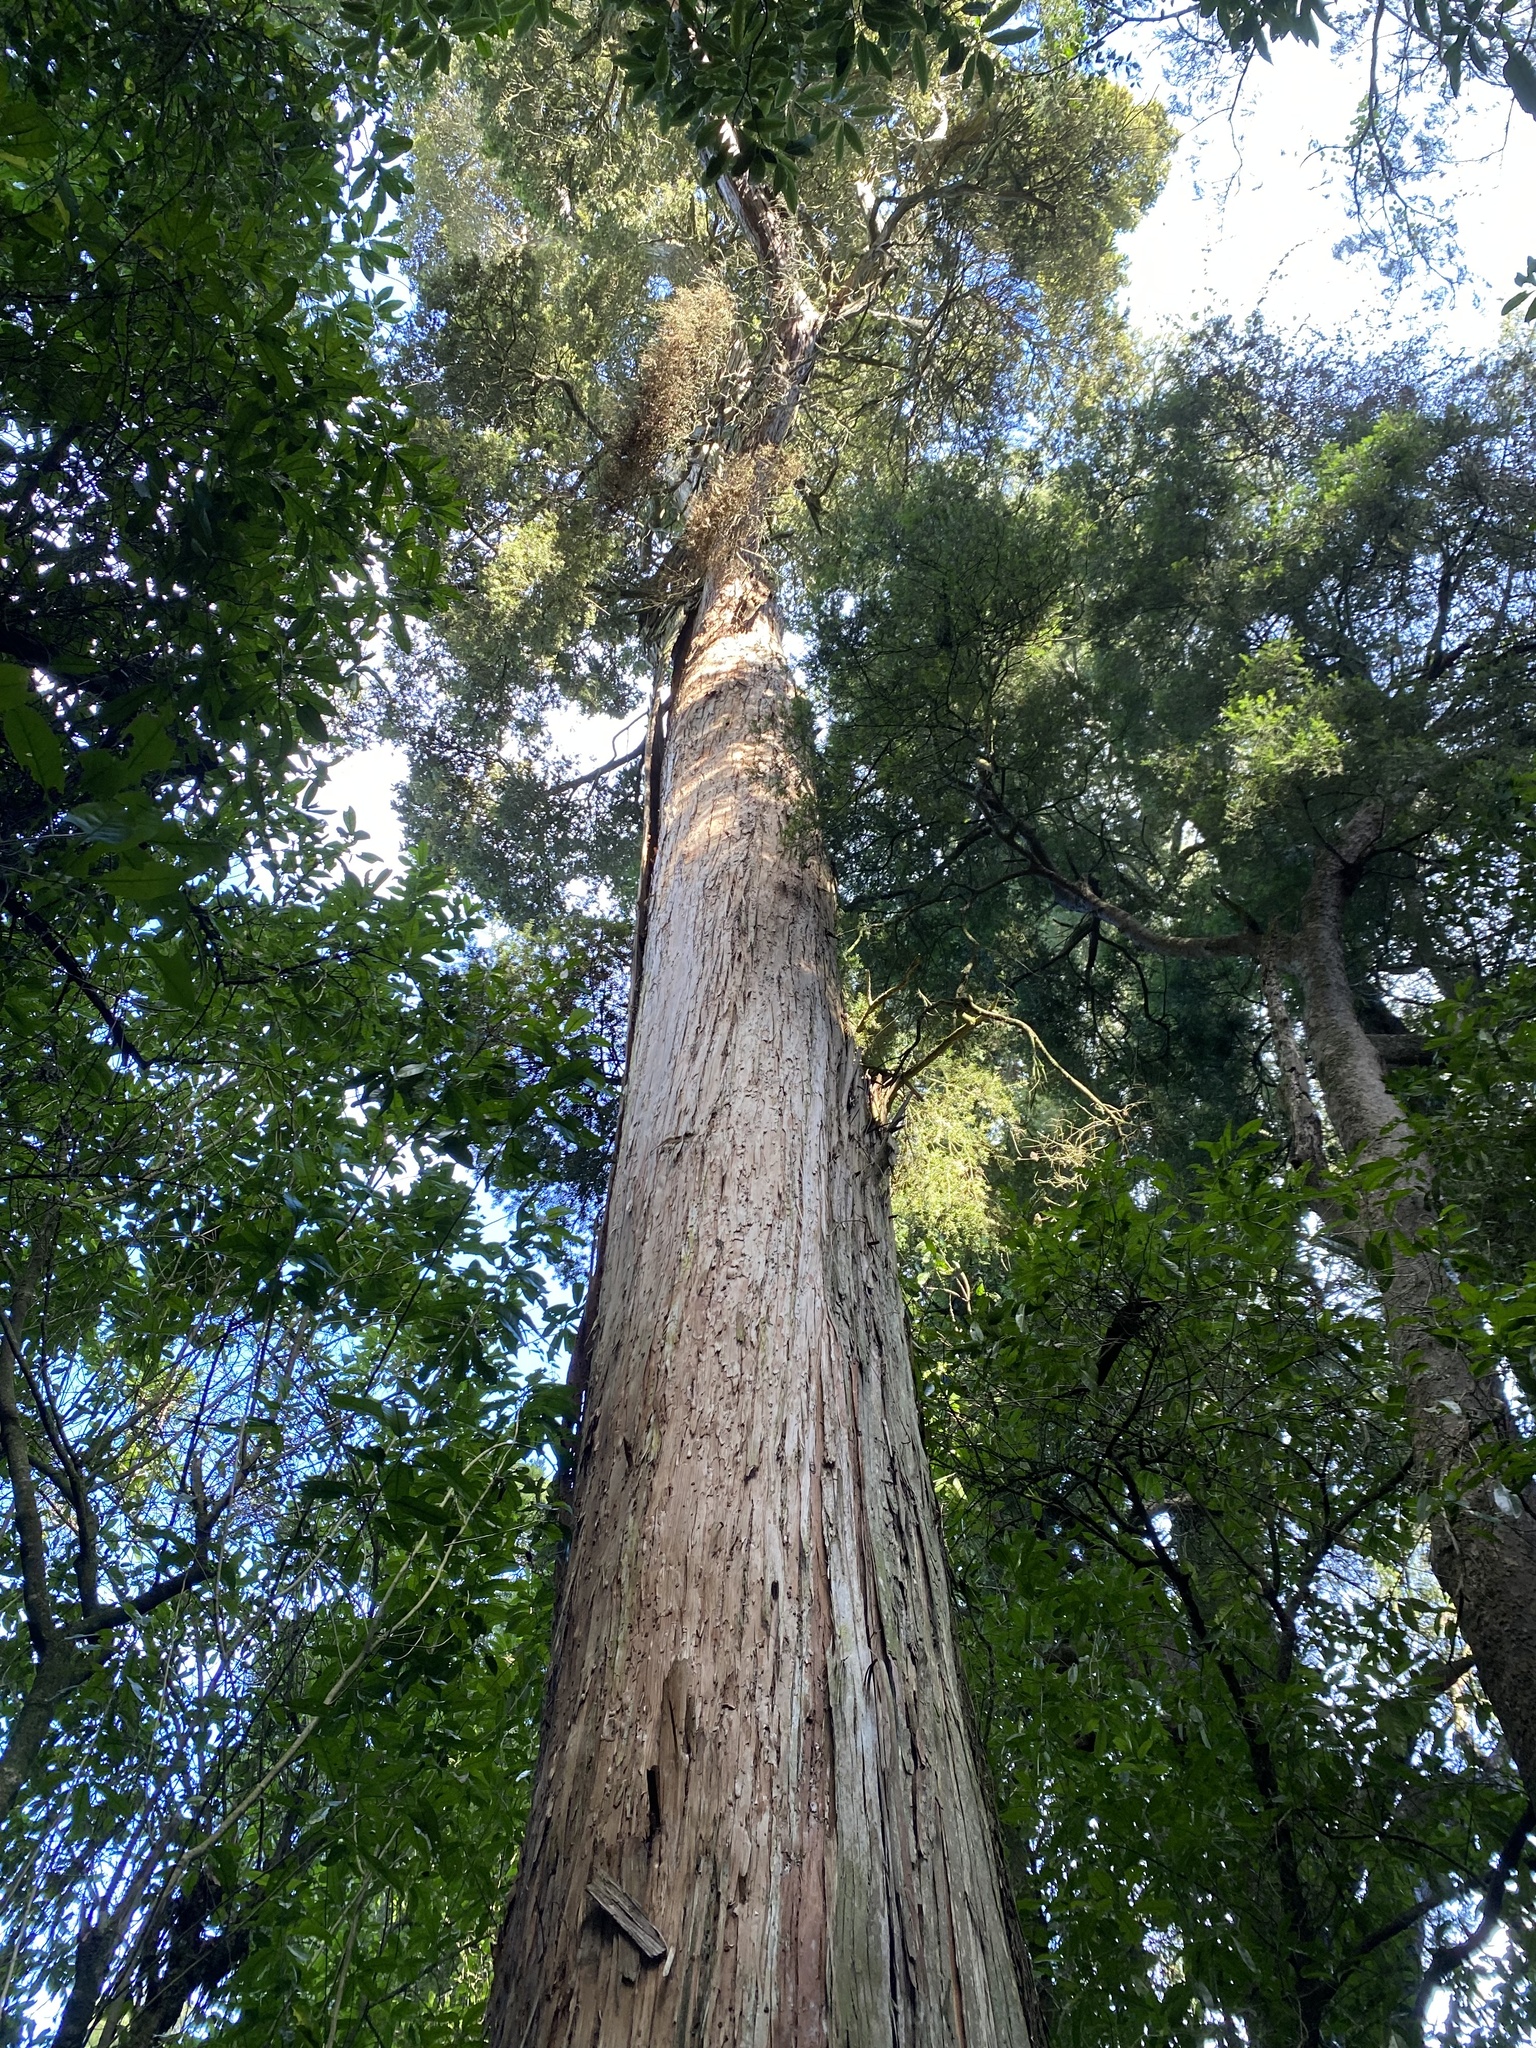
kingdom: Plantae
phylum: Tracheophyta
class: Pinopsida
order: Pinales
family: Podocarpaceae
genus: Podocarpus
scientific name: Podocarpus totara
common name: Totara
